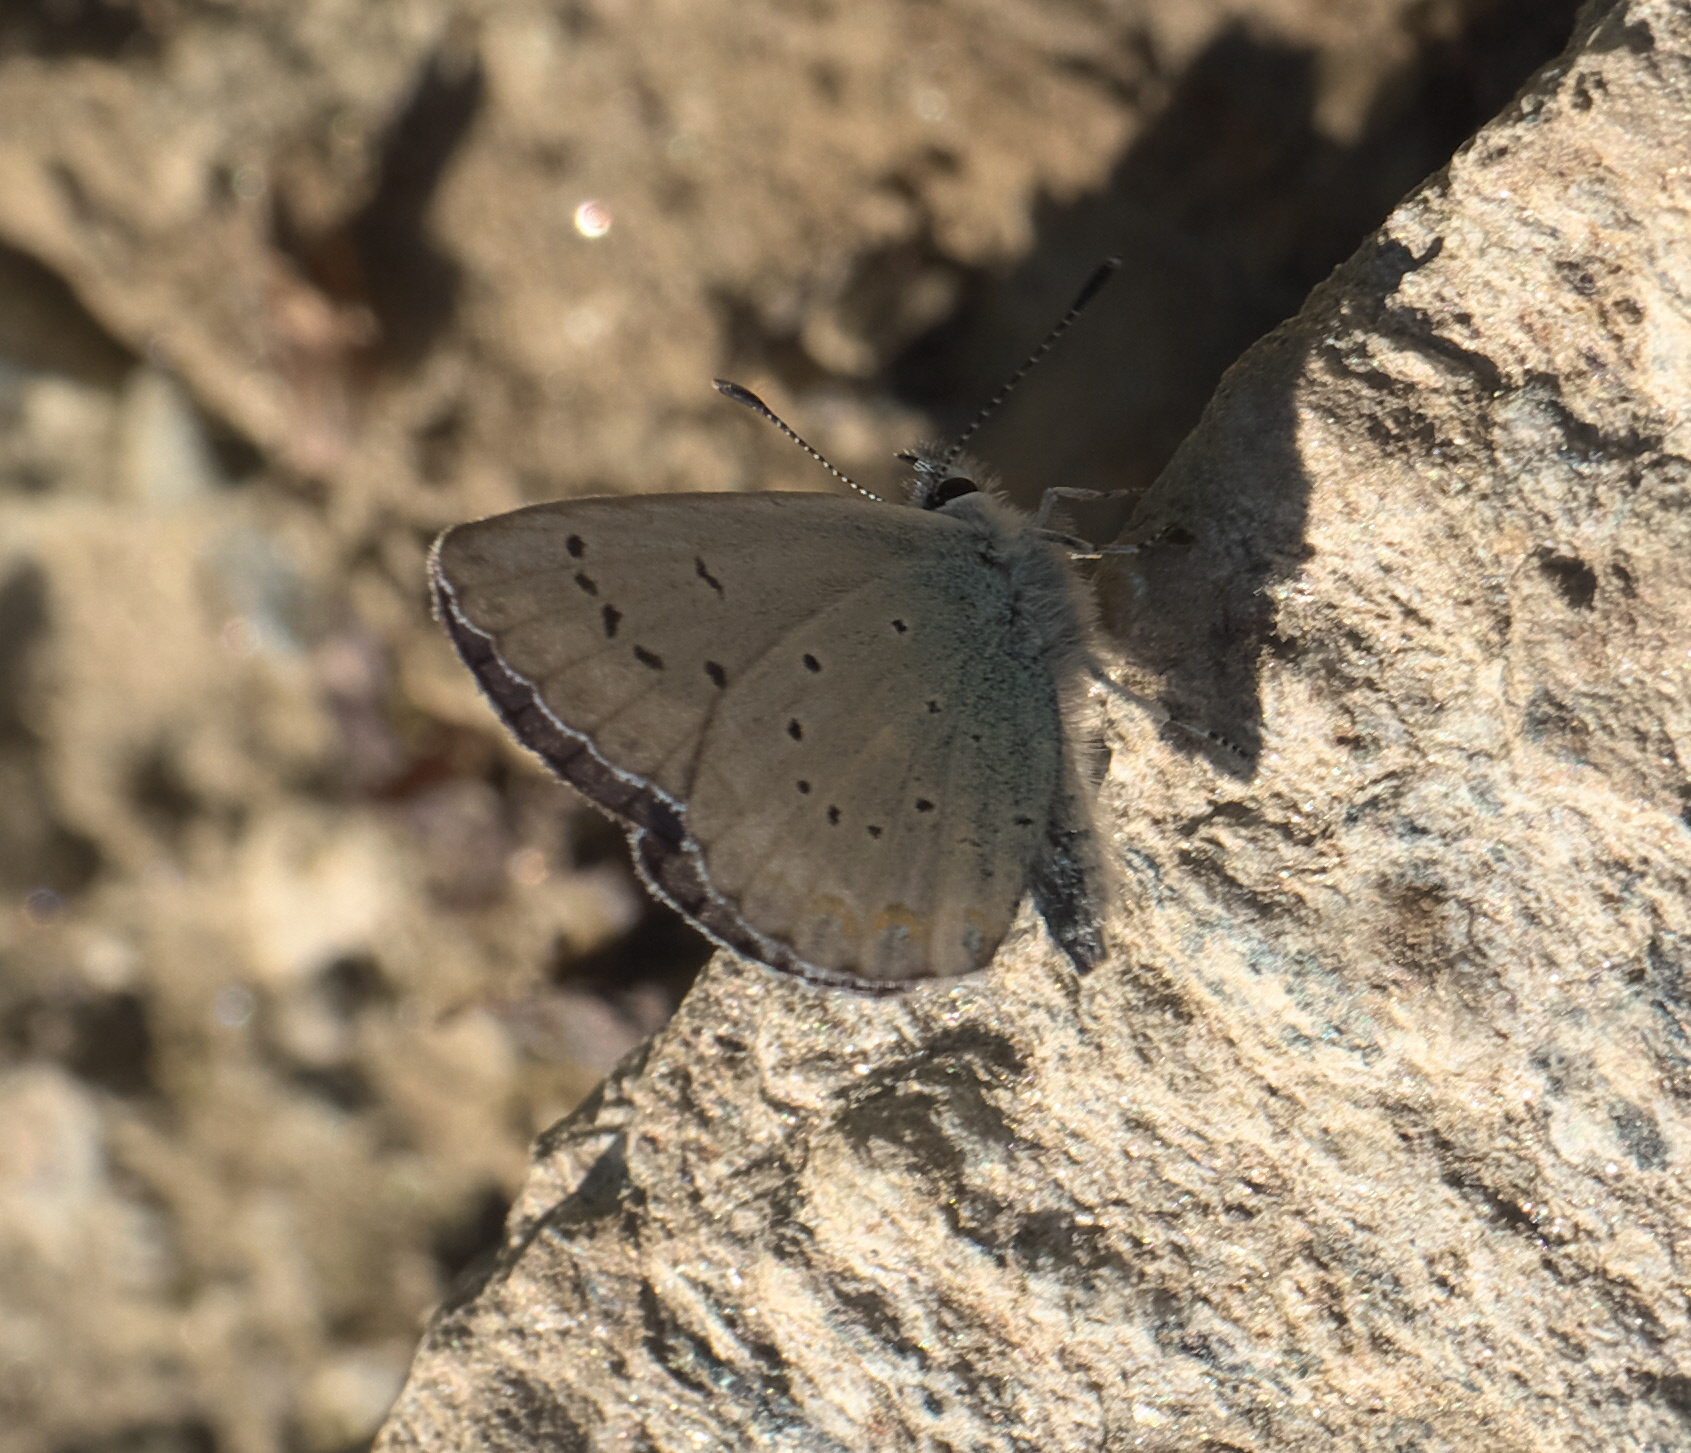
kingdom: Animalia
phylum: Arthropoda
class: Insecta
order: Lepidoptera
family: Lycaenidae
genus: Lycaeides
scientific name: Lycaeides anna
